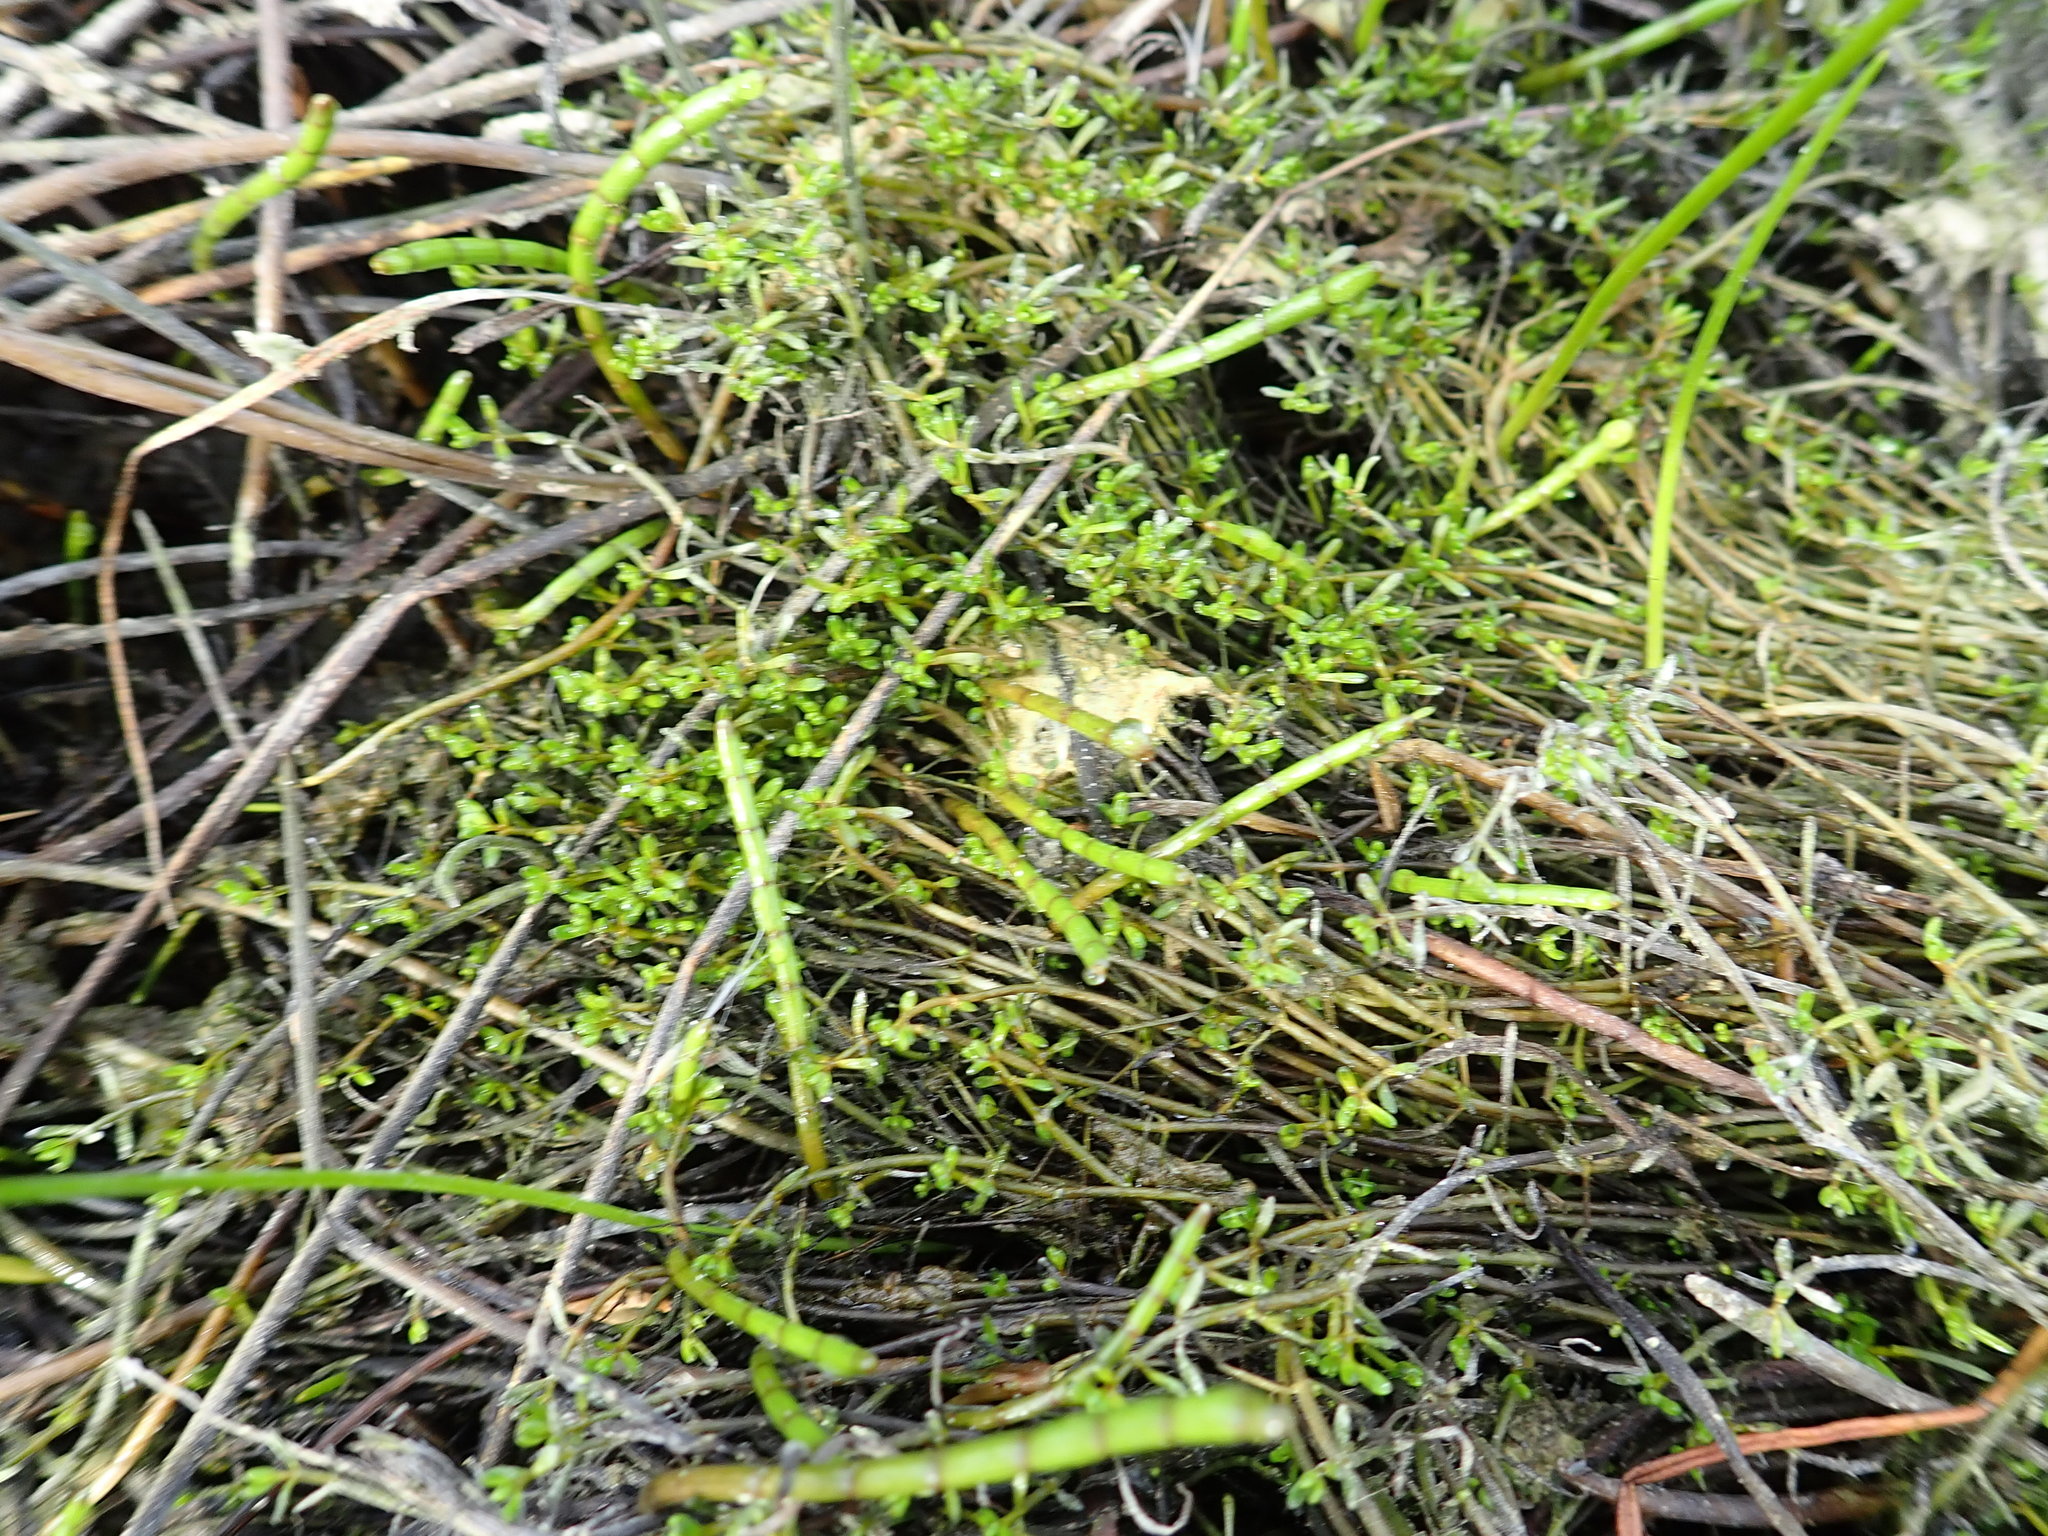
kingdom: Plantae
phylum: Tracheophyta
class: Magnoliopsida
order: Saxifragales
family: Haloragaceae
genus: Myriophyllum
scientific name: Myriophyllum votschii
